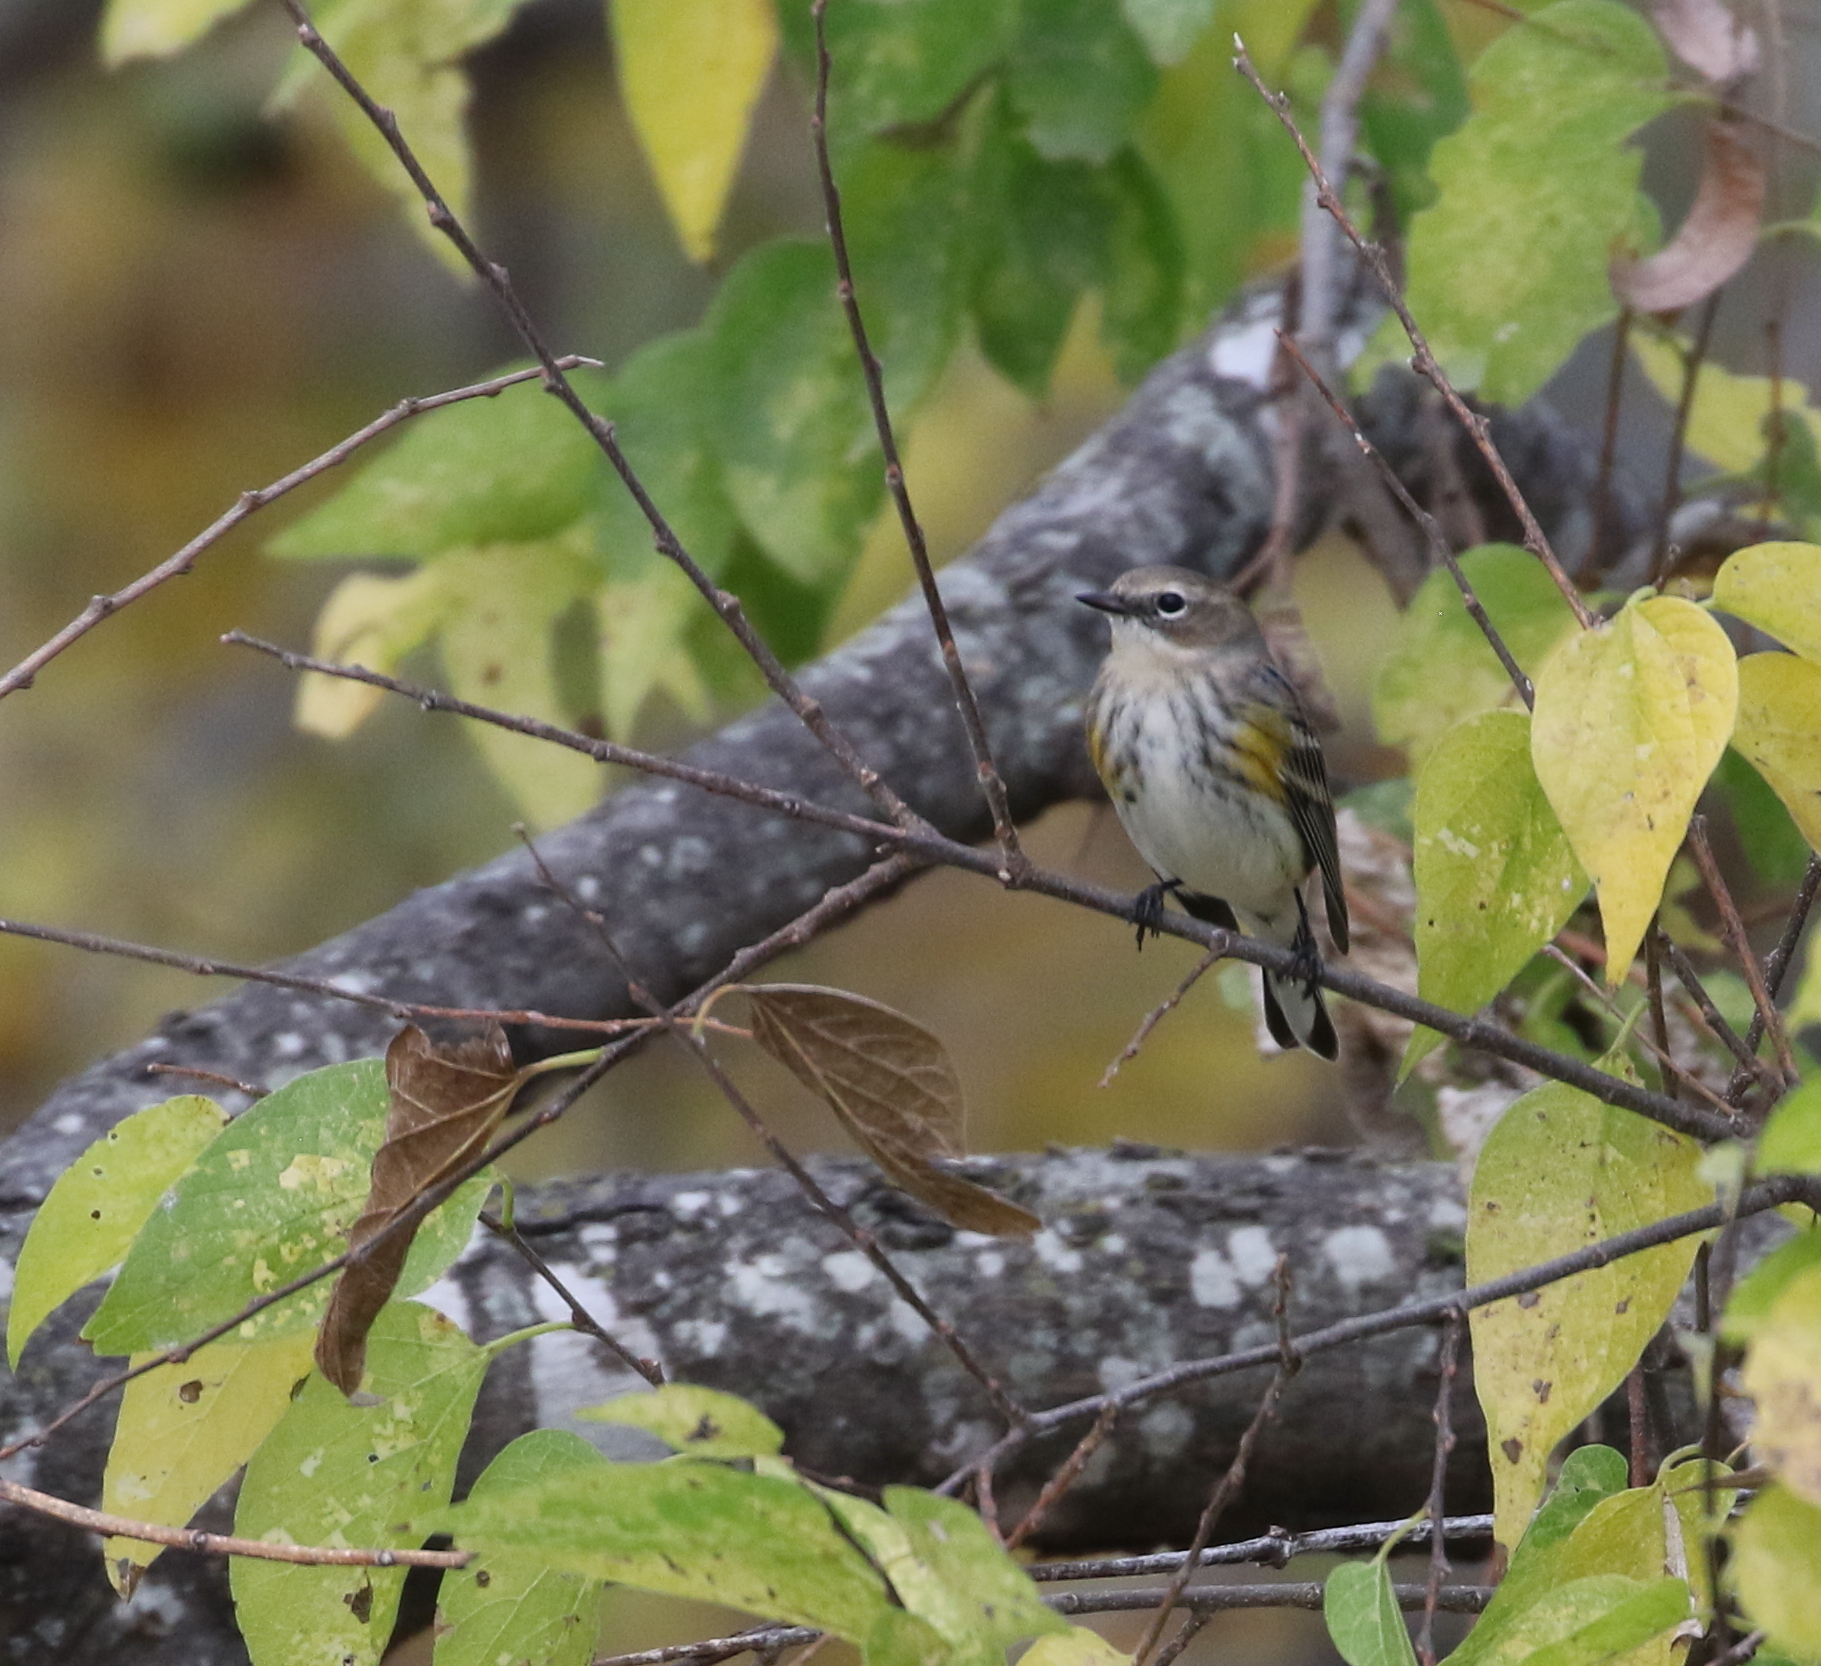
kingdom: Animalia
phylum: Chordata
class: Aves
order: Passeriformes
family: Parulidae
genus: Setophaga
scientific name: Setophaga coronata
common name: Myrtle warbler
